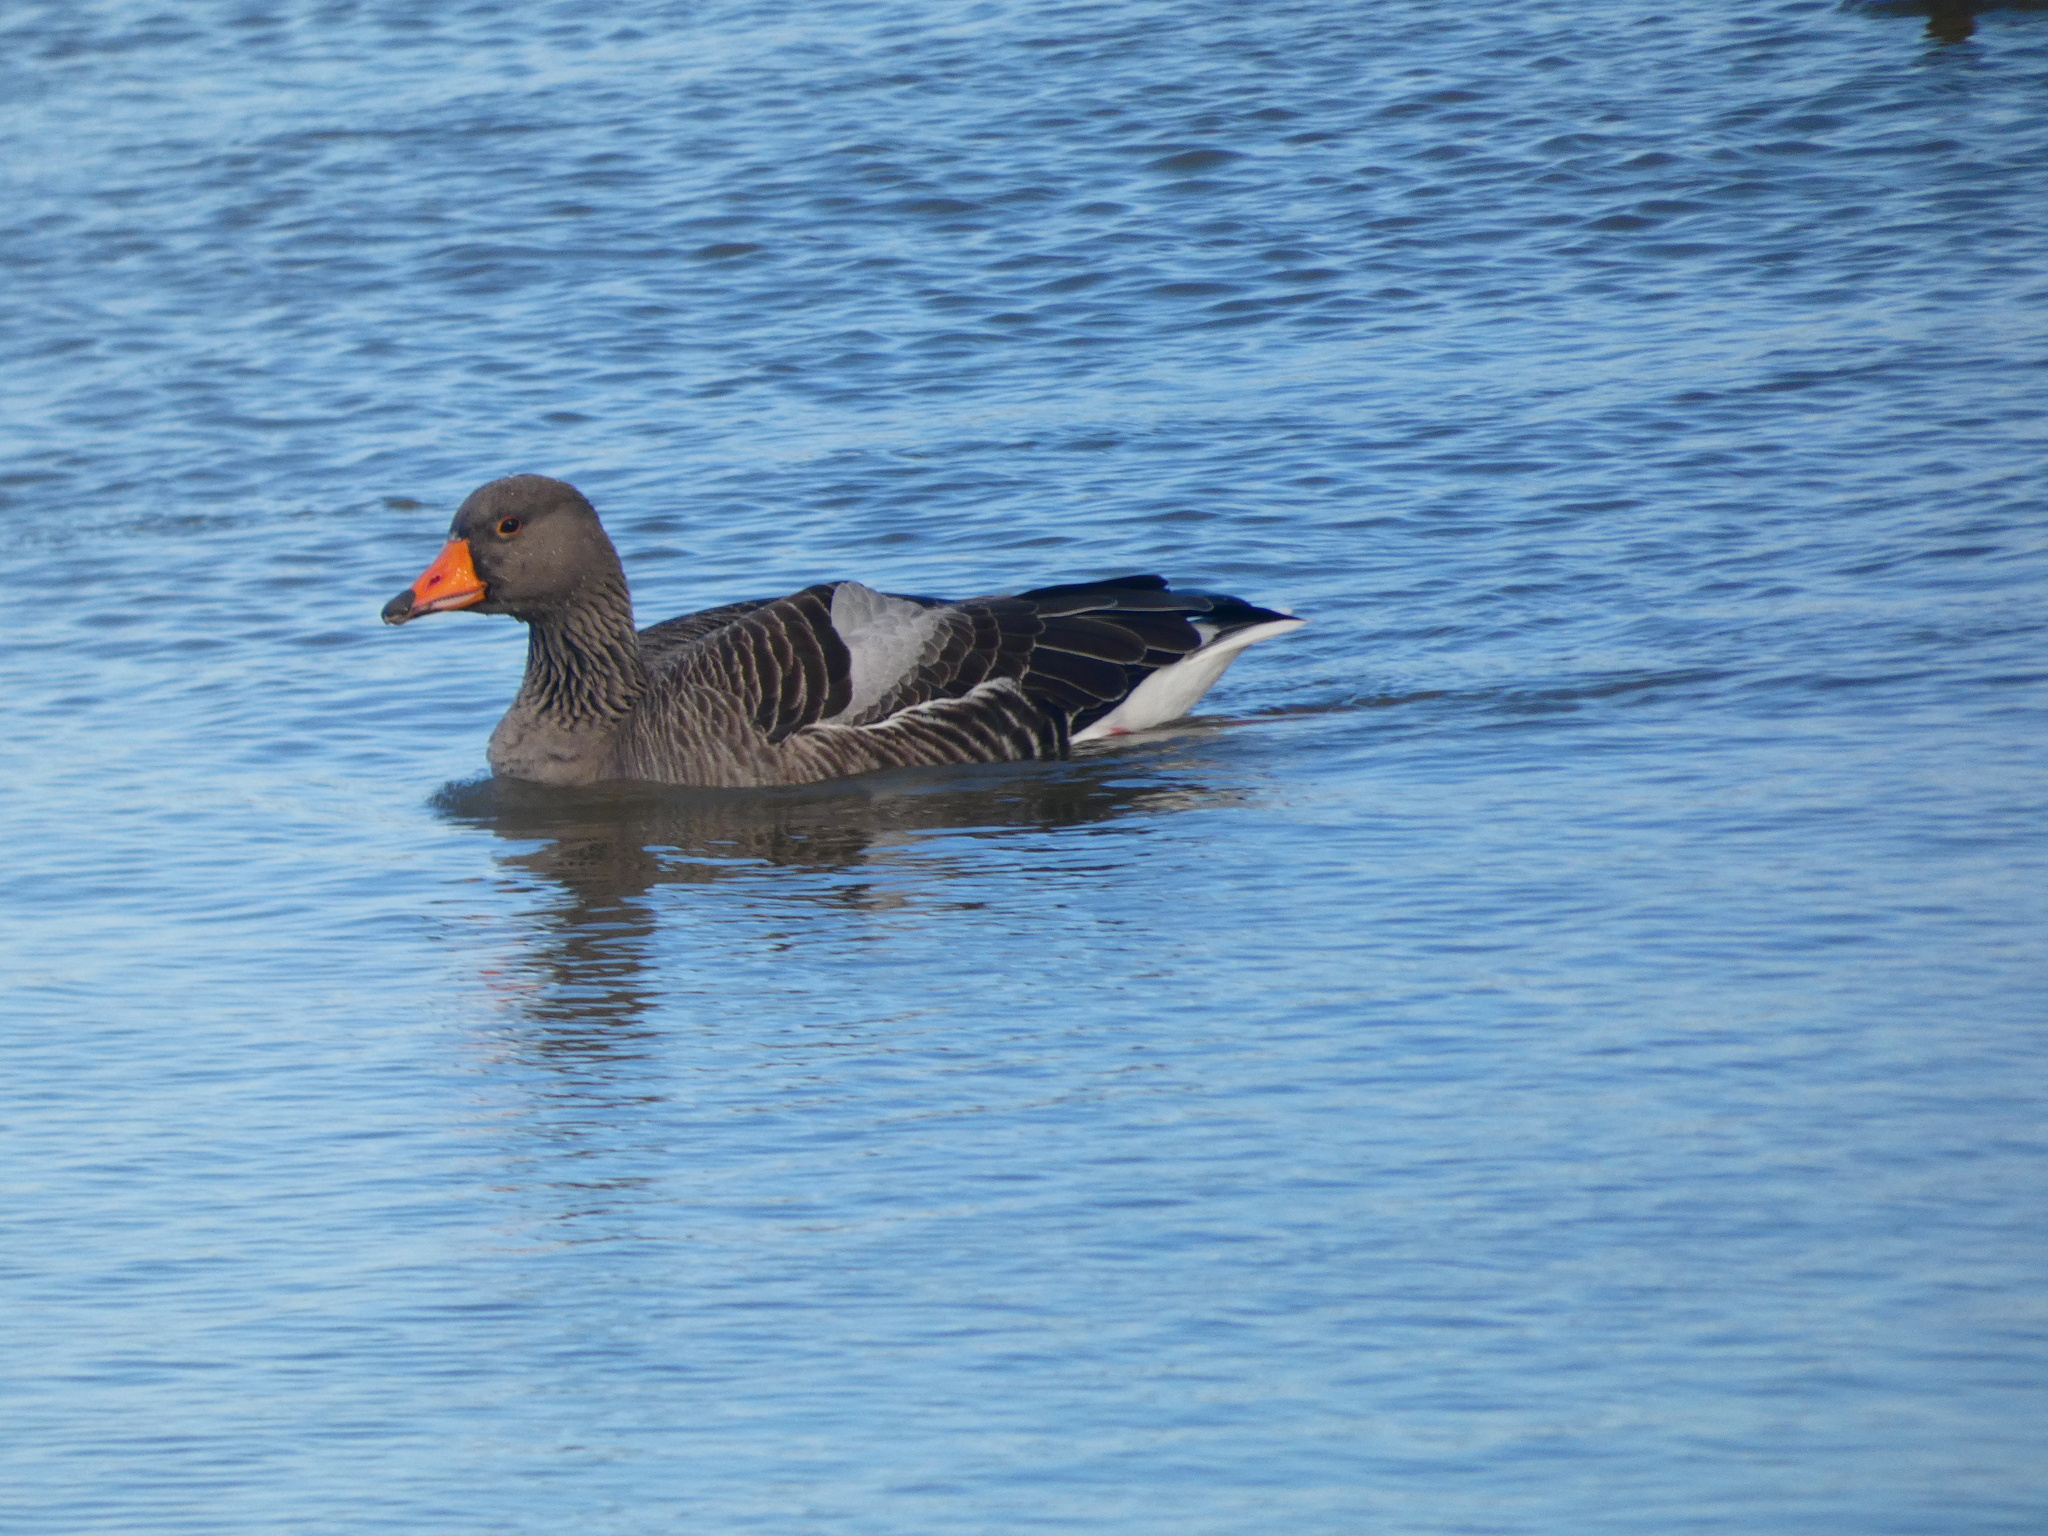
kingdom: Animalia
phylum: Chordata
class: Aves
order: Anseriformes
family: Anatidae
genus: Anser
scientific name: Anser serrirostris
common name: Tundra bean goose
